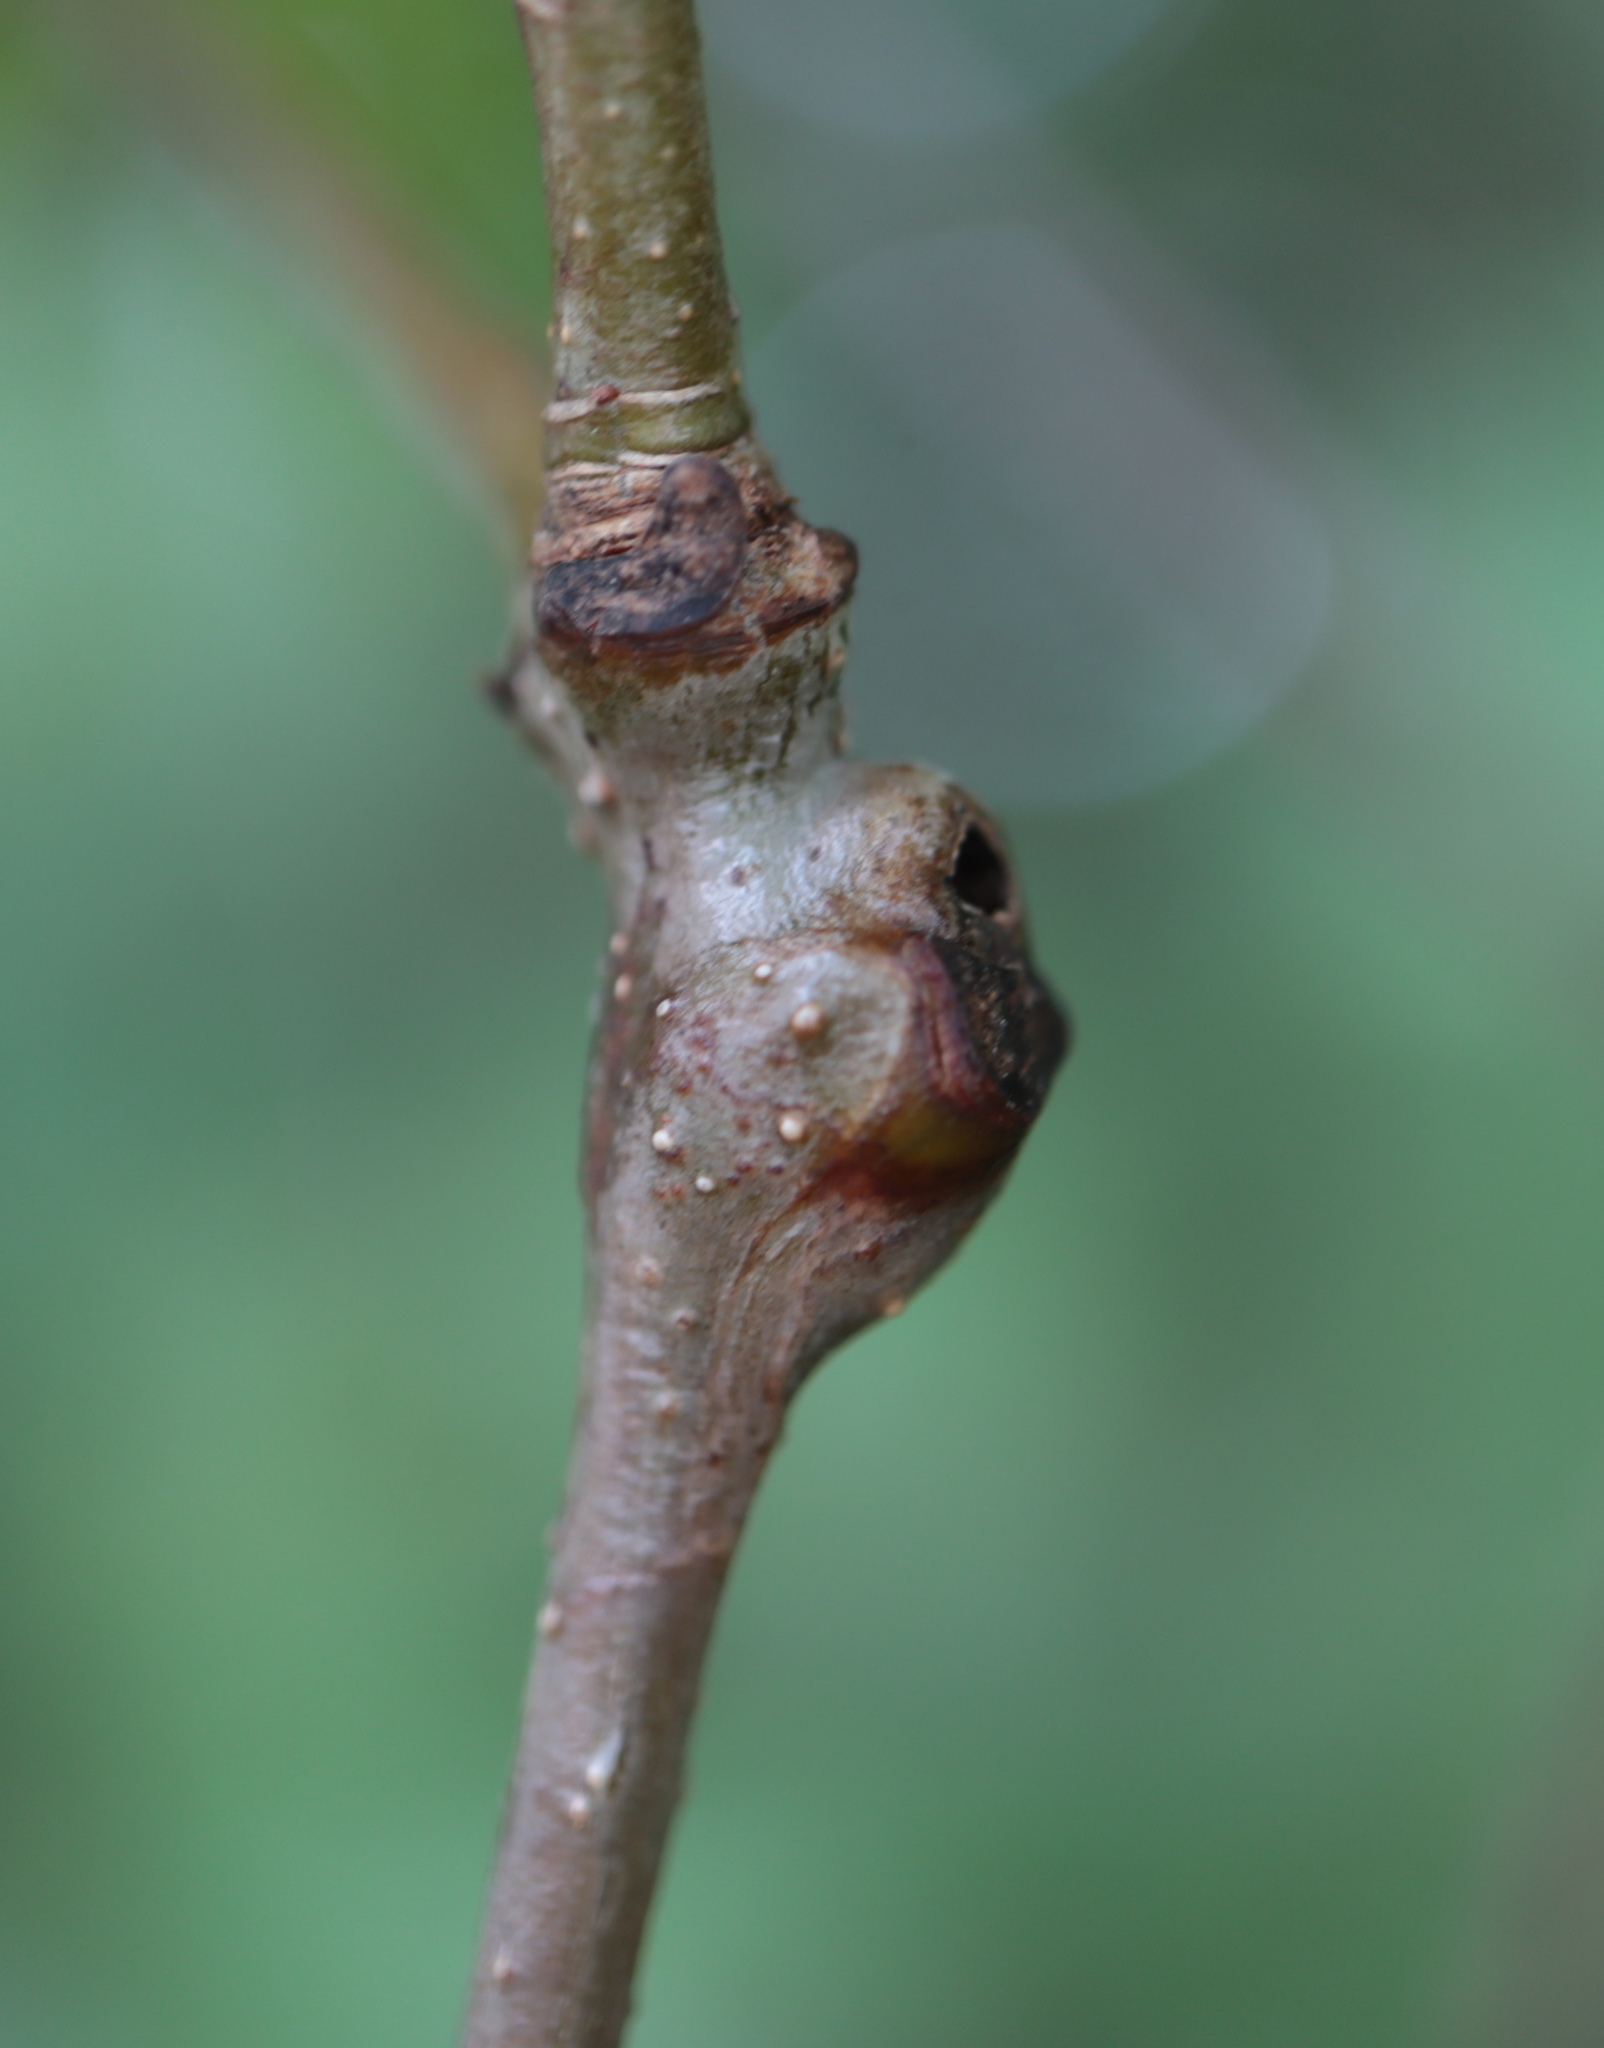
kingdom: Animalia
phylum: Arthropoda
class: Insecta
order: Hymenoptera
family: Cynipidae
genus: Callirhytis
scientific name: Callirhytis clavula
